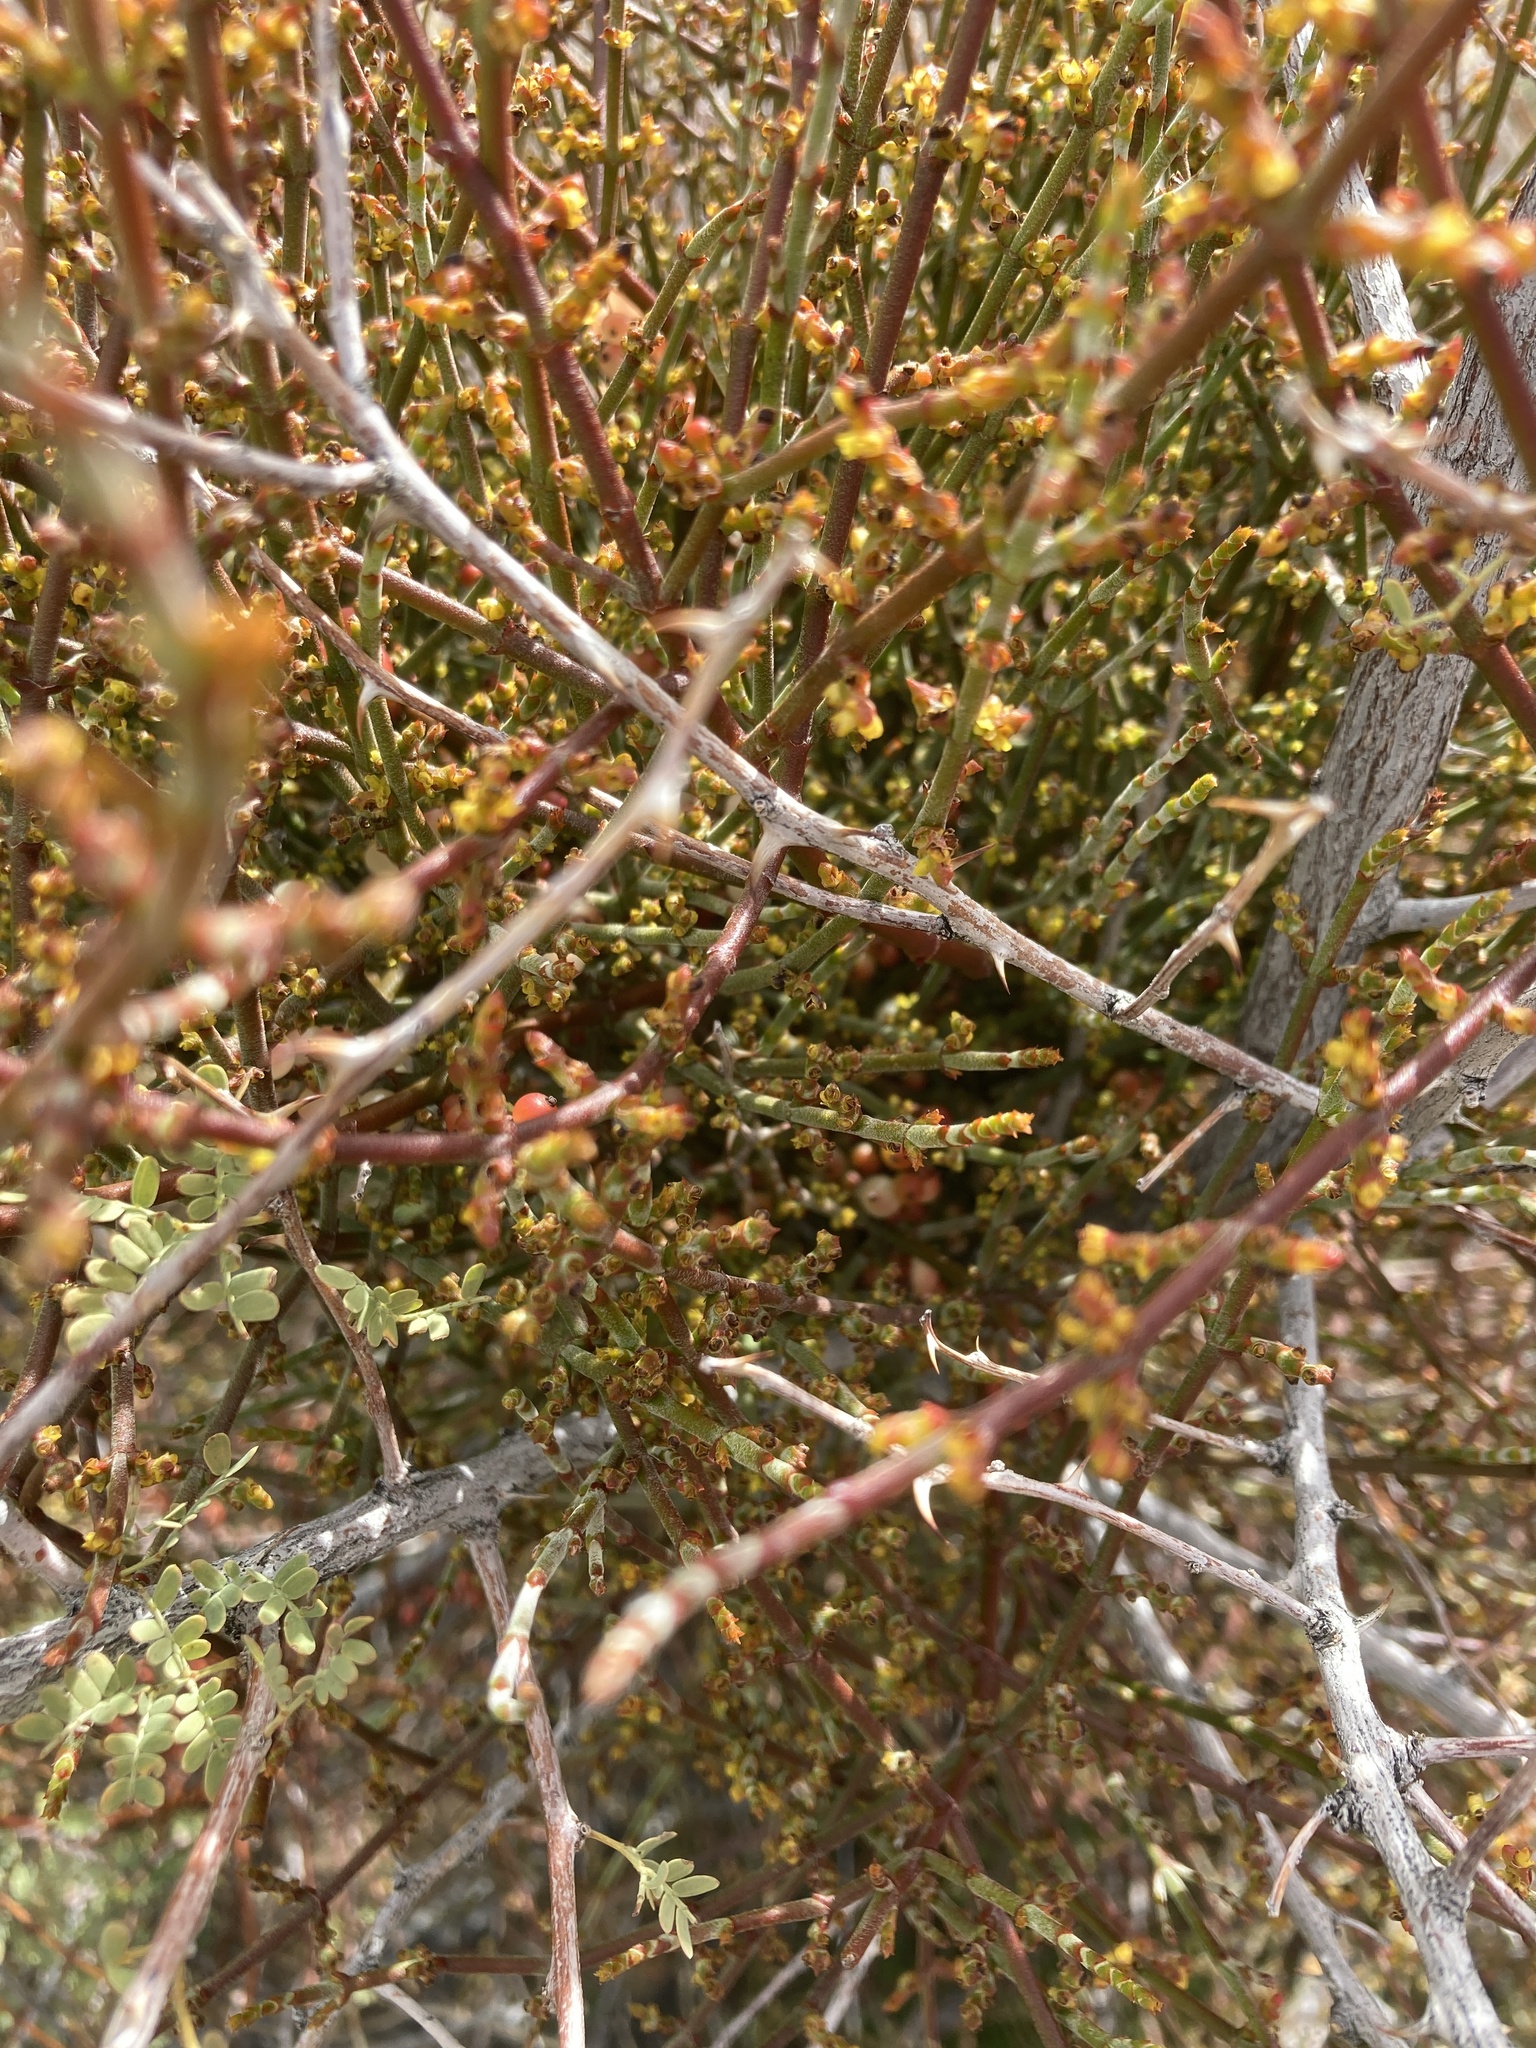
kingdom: Plantae
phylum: Tracheophyta
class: Magnoliopsida
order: Santalales
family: Viscaceae
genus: Phoradendron
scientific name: Phoradendron californicum
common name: Acacia mistletoe
